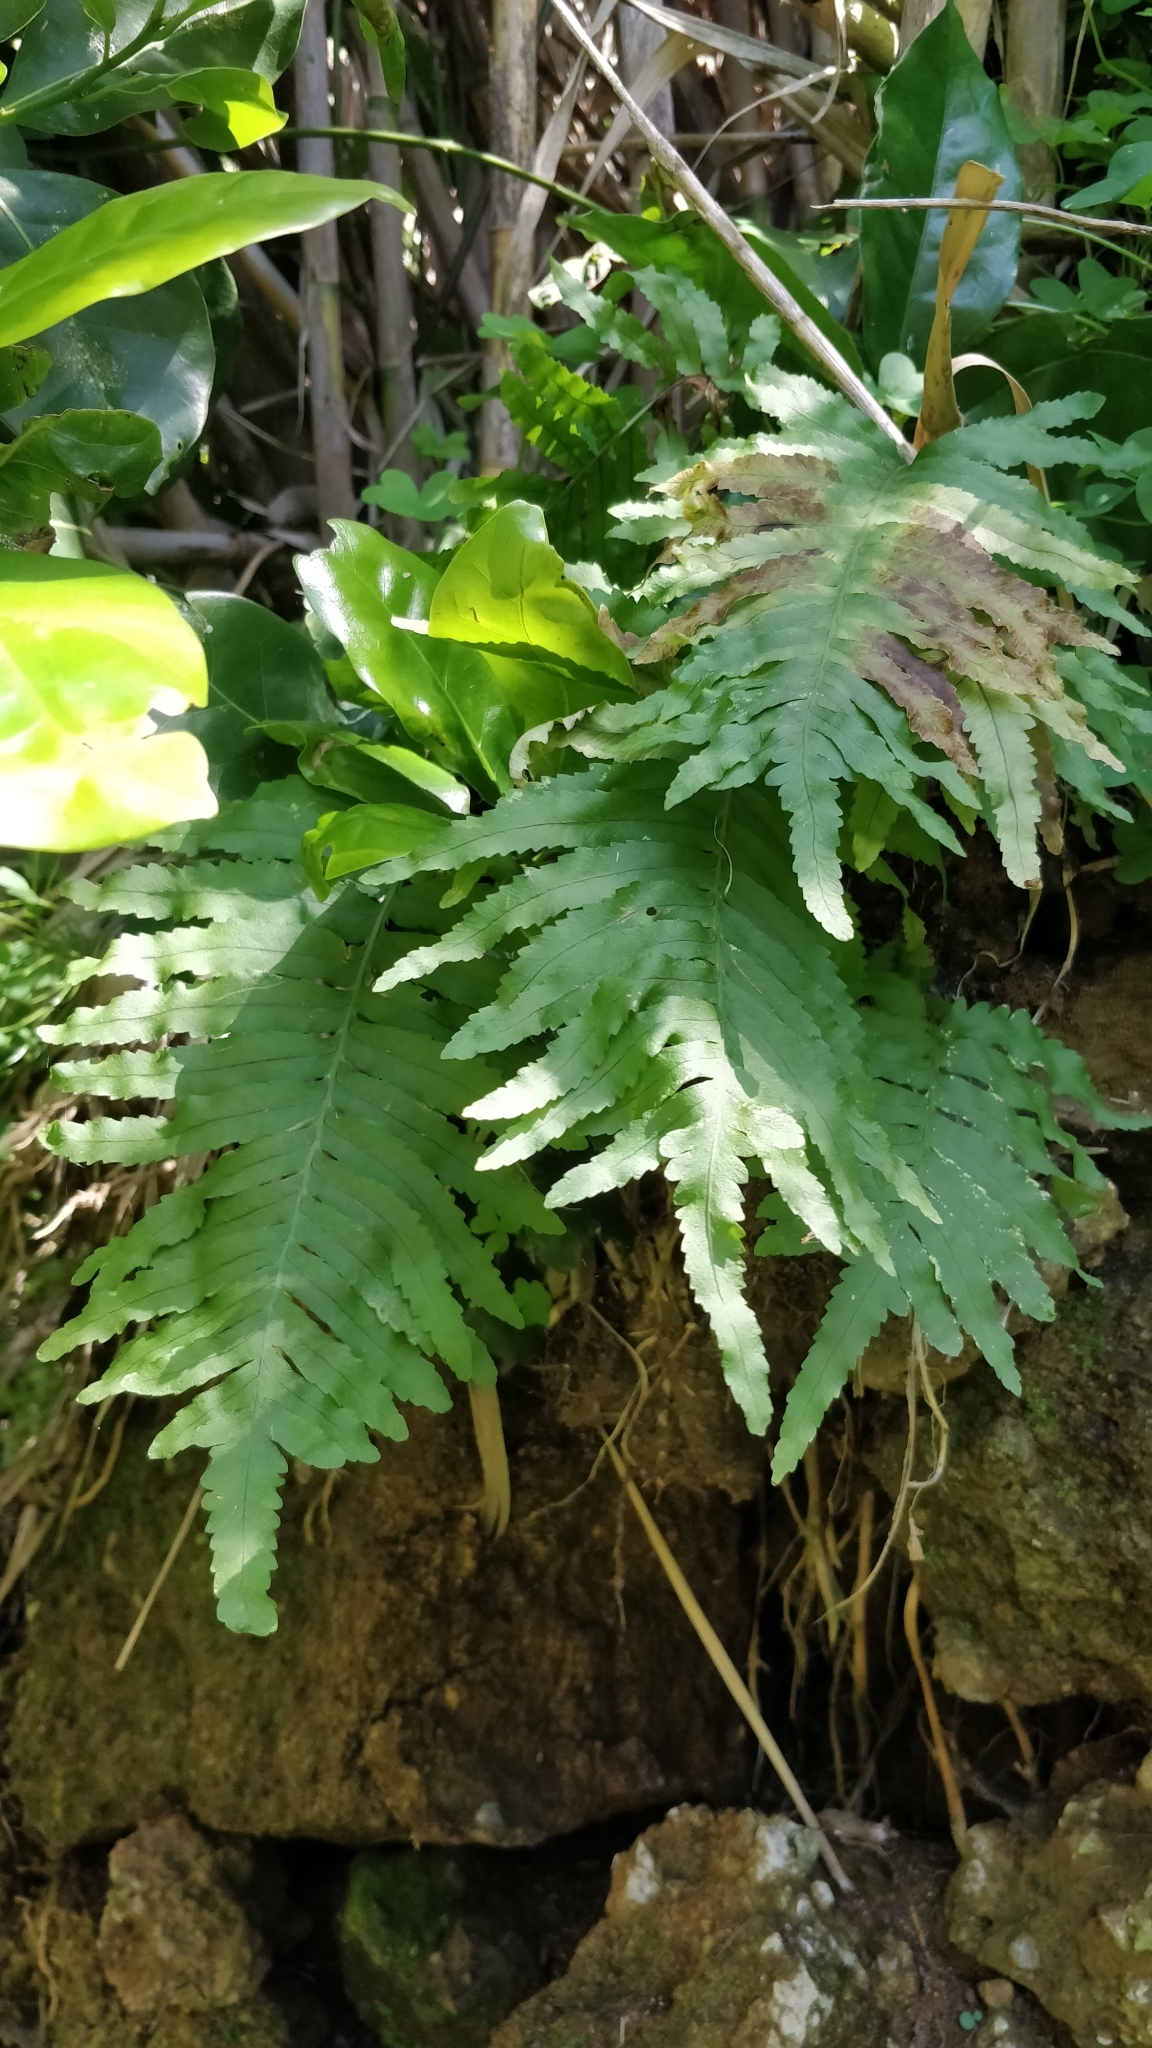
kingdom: Plantae
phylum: Tracheophyta
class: Polypodiopsida
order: Polypodiales
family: Polypodiaceae
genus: Polypodium
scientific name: Polypodium macaronesicum
